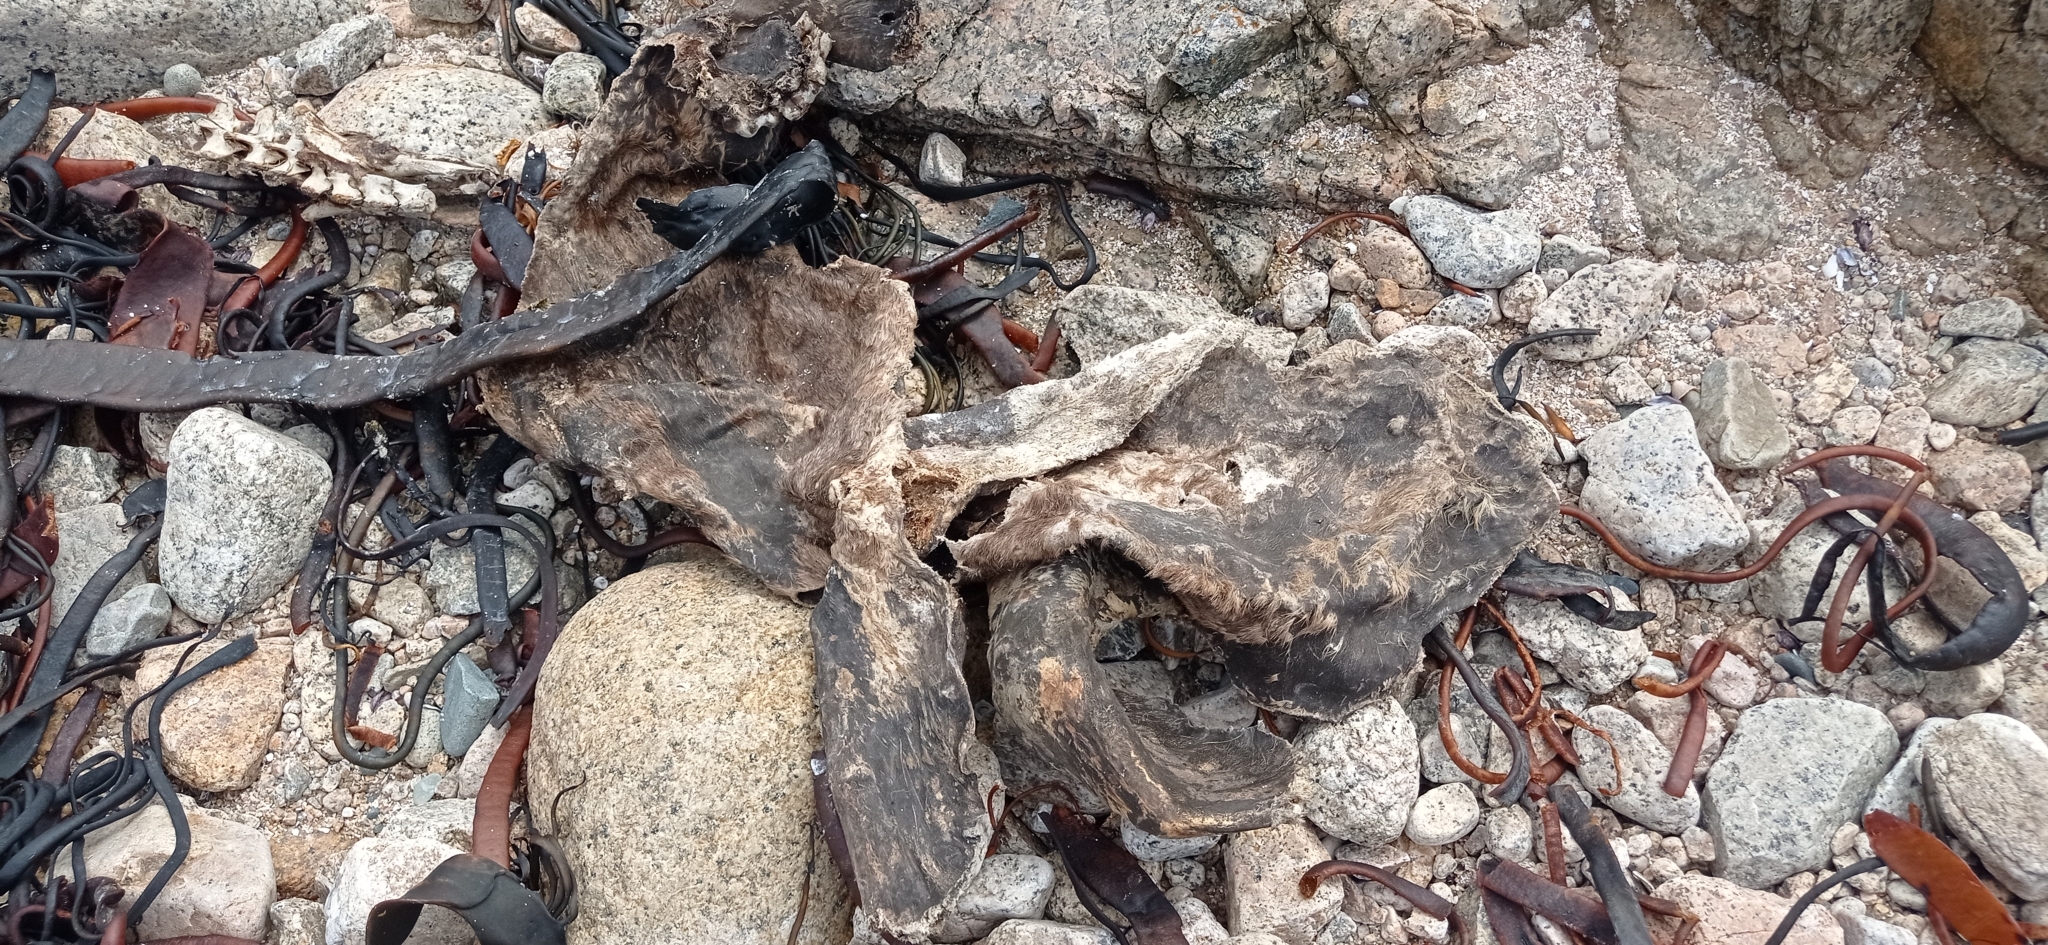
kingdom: Animalia
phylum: Chordata
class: Mammalia
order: Carnivora
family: Otariidae
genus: Otaria
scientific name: Otaria byronia
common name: South american sea lion
